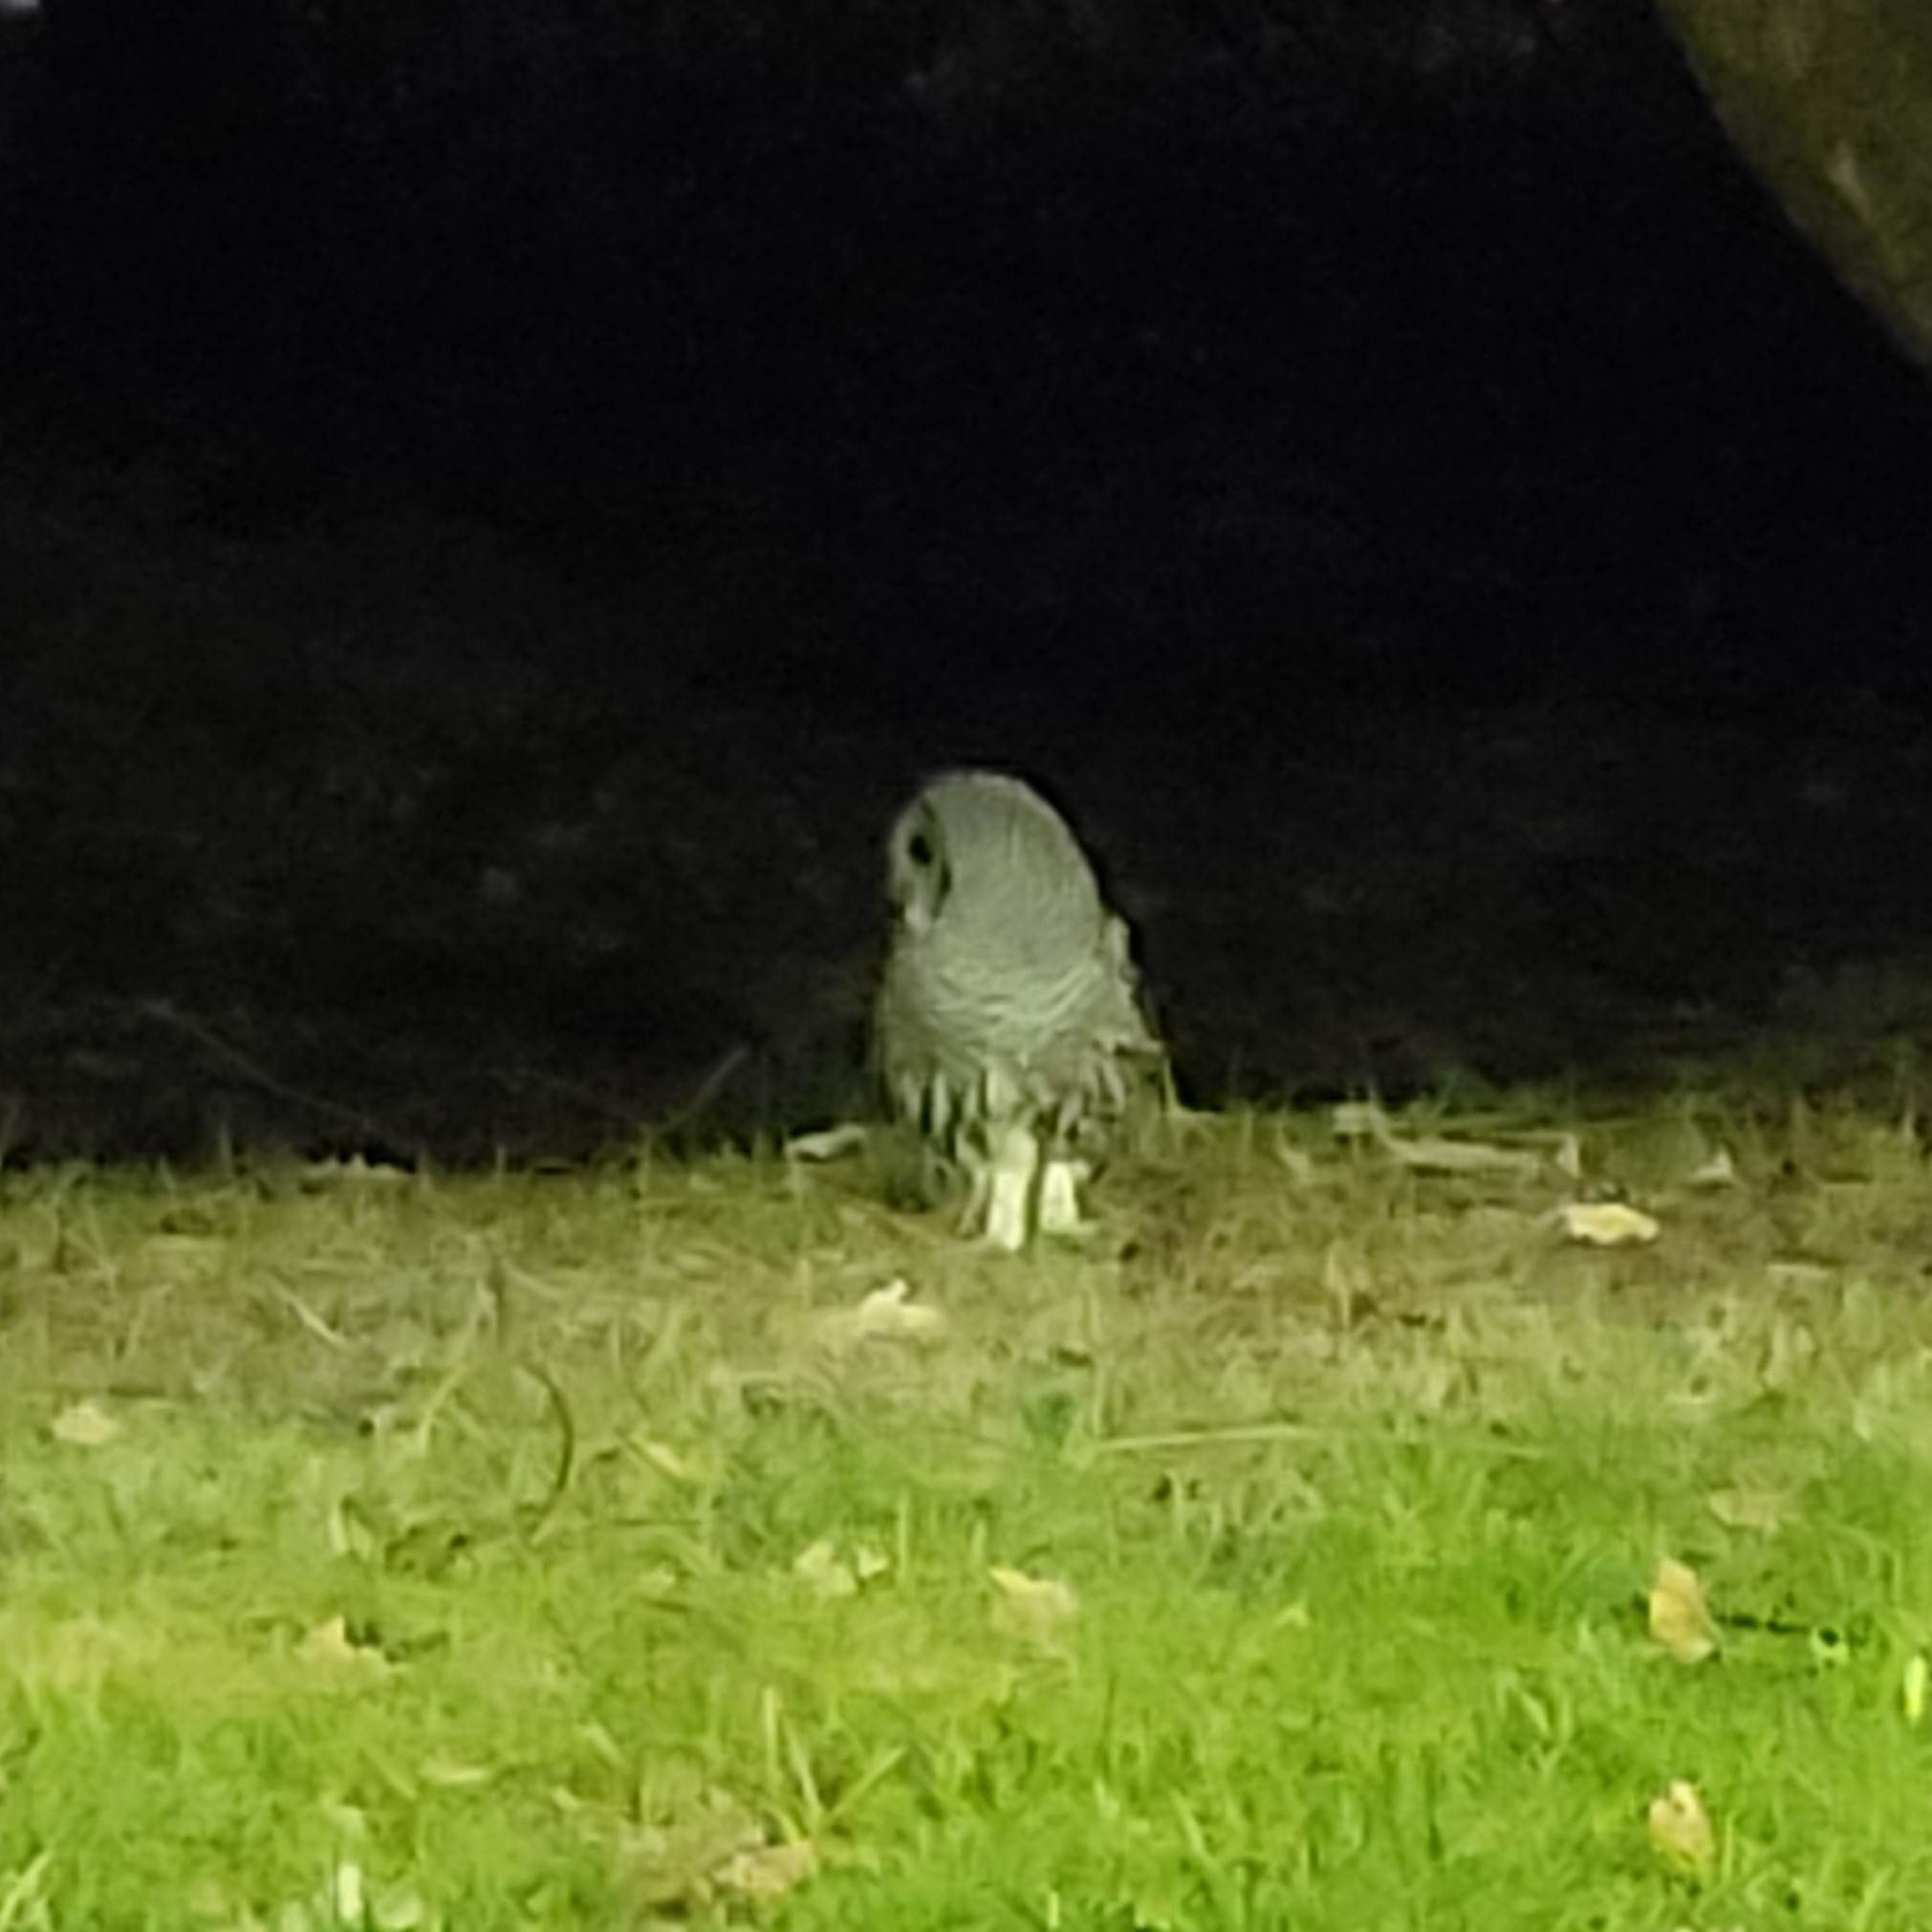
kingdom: Animalia
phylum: Chordata
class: Aves
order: Strigiformes
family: Strigidae
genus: Strix
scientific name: Strix varia
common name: Barred owl
